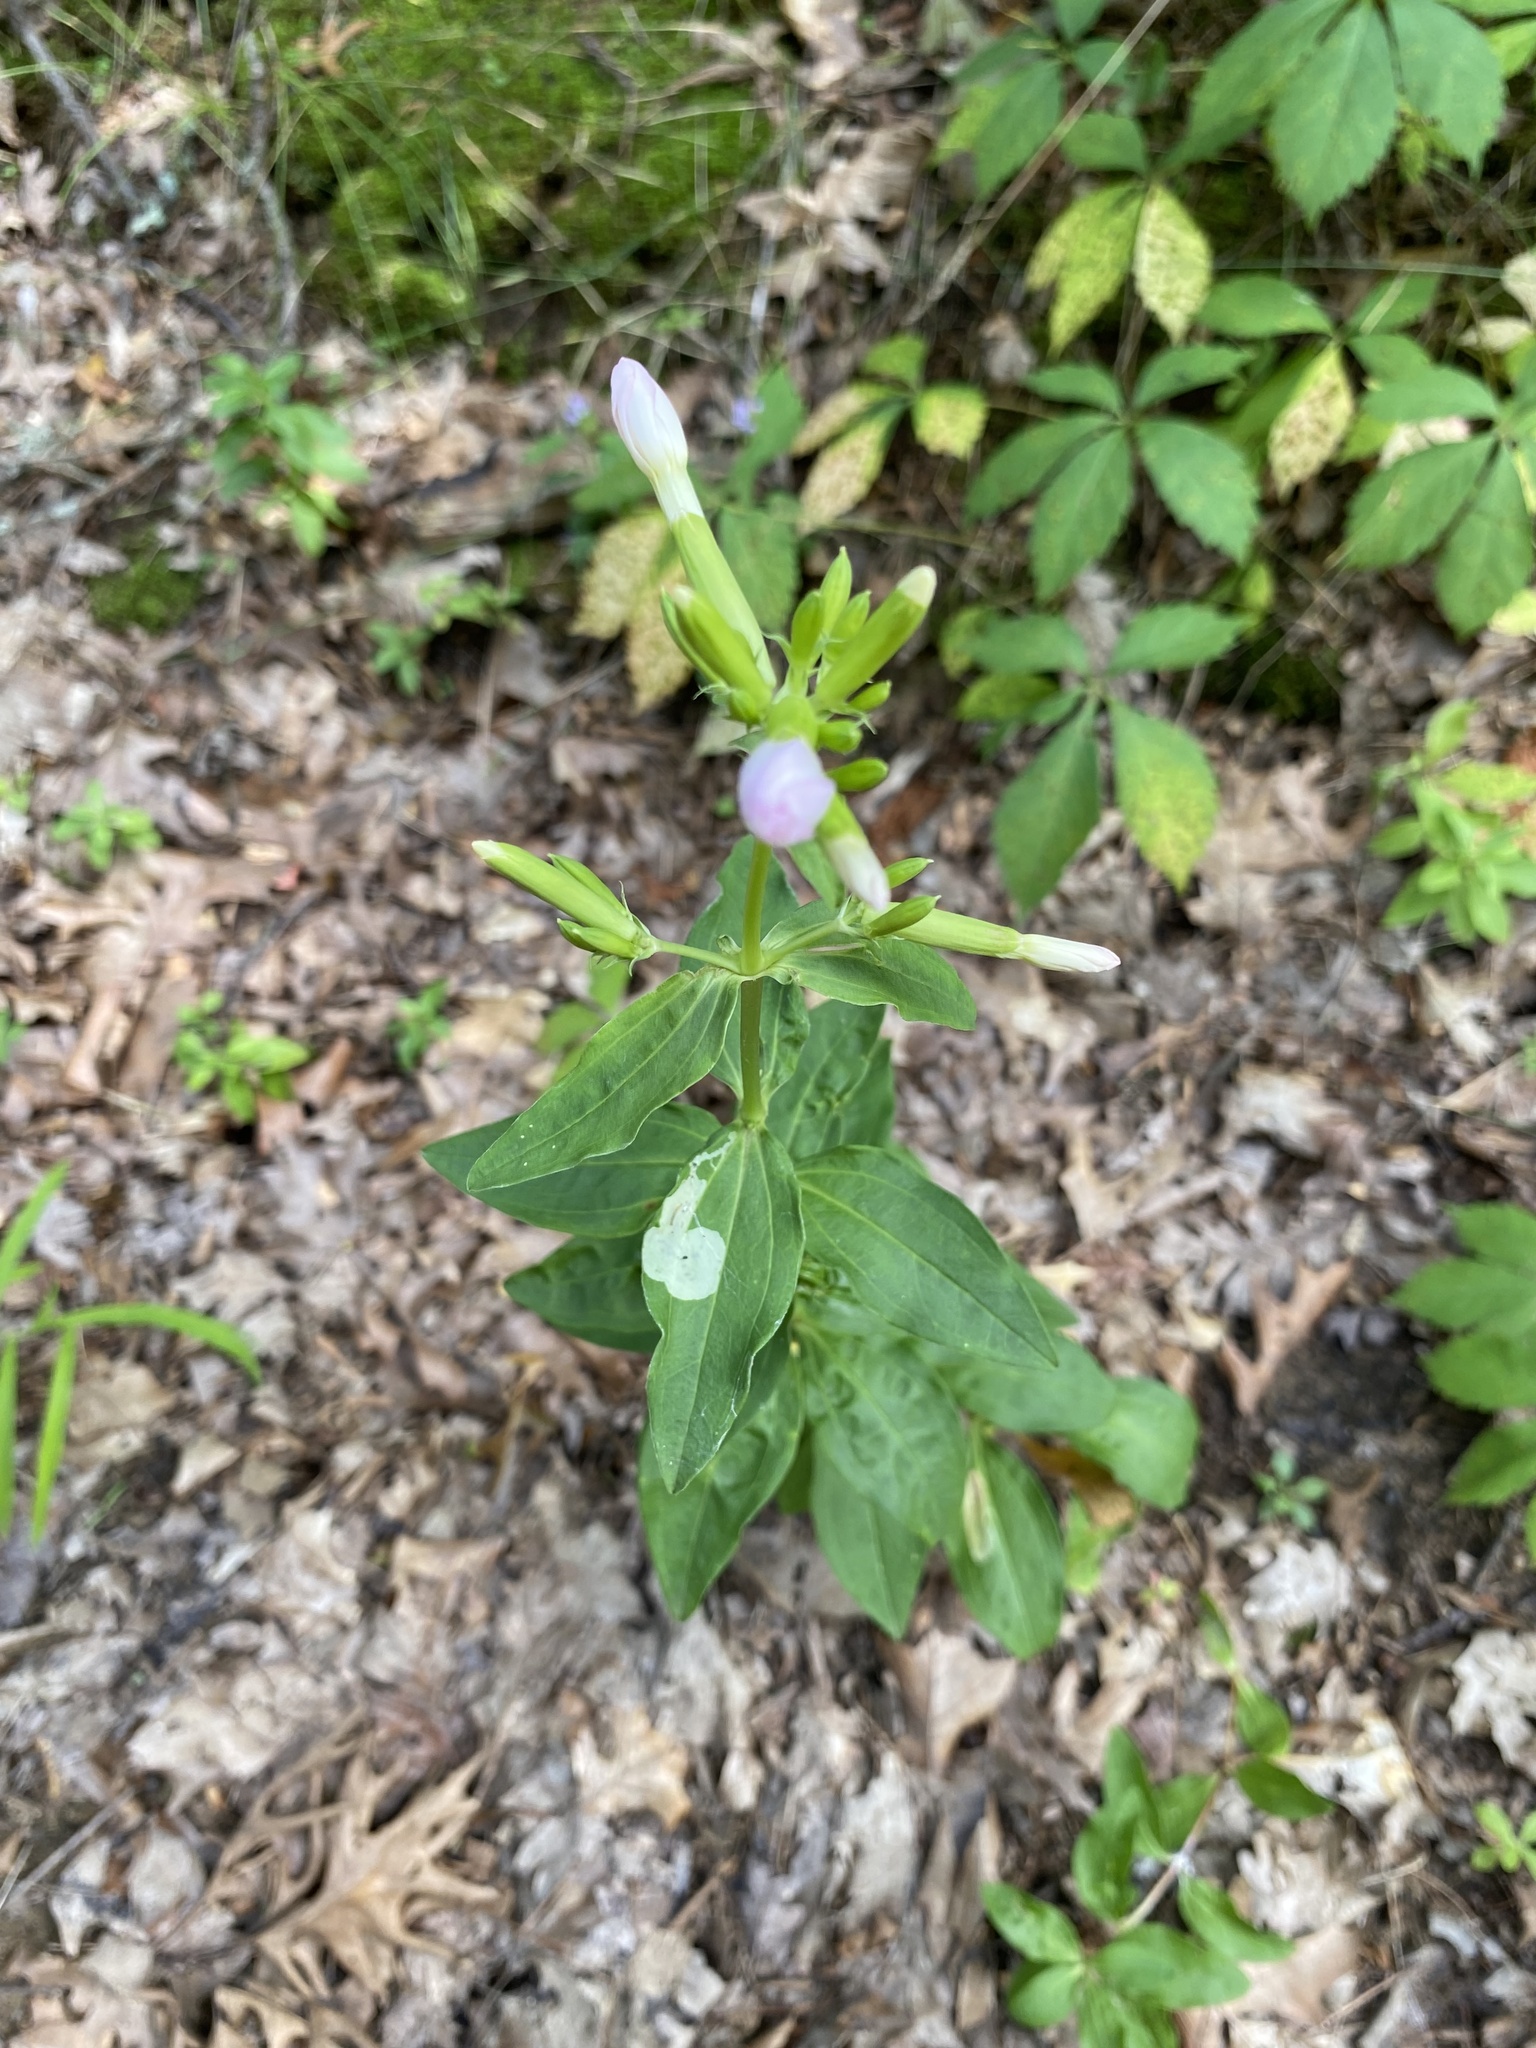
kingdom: Plantae
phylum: Tracheophyta
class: Magnoliopsida
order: Caryophyllales
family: Caryophyllaceae
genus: Saponaria
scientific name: Saponaria officinalis
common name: Soapwort
